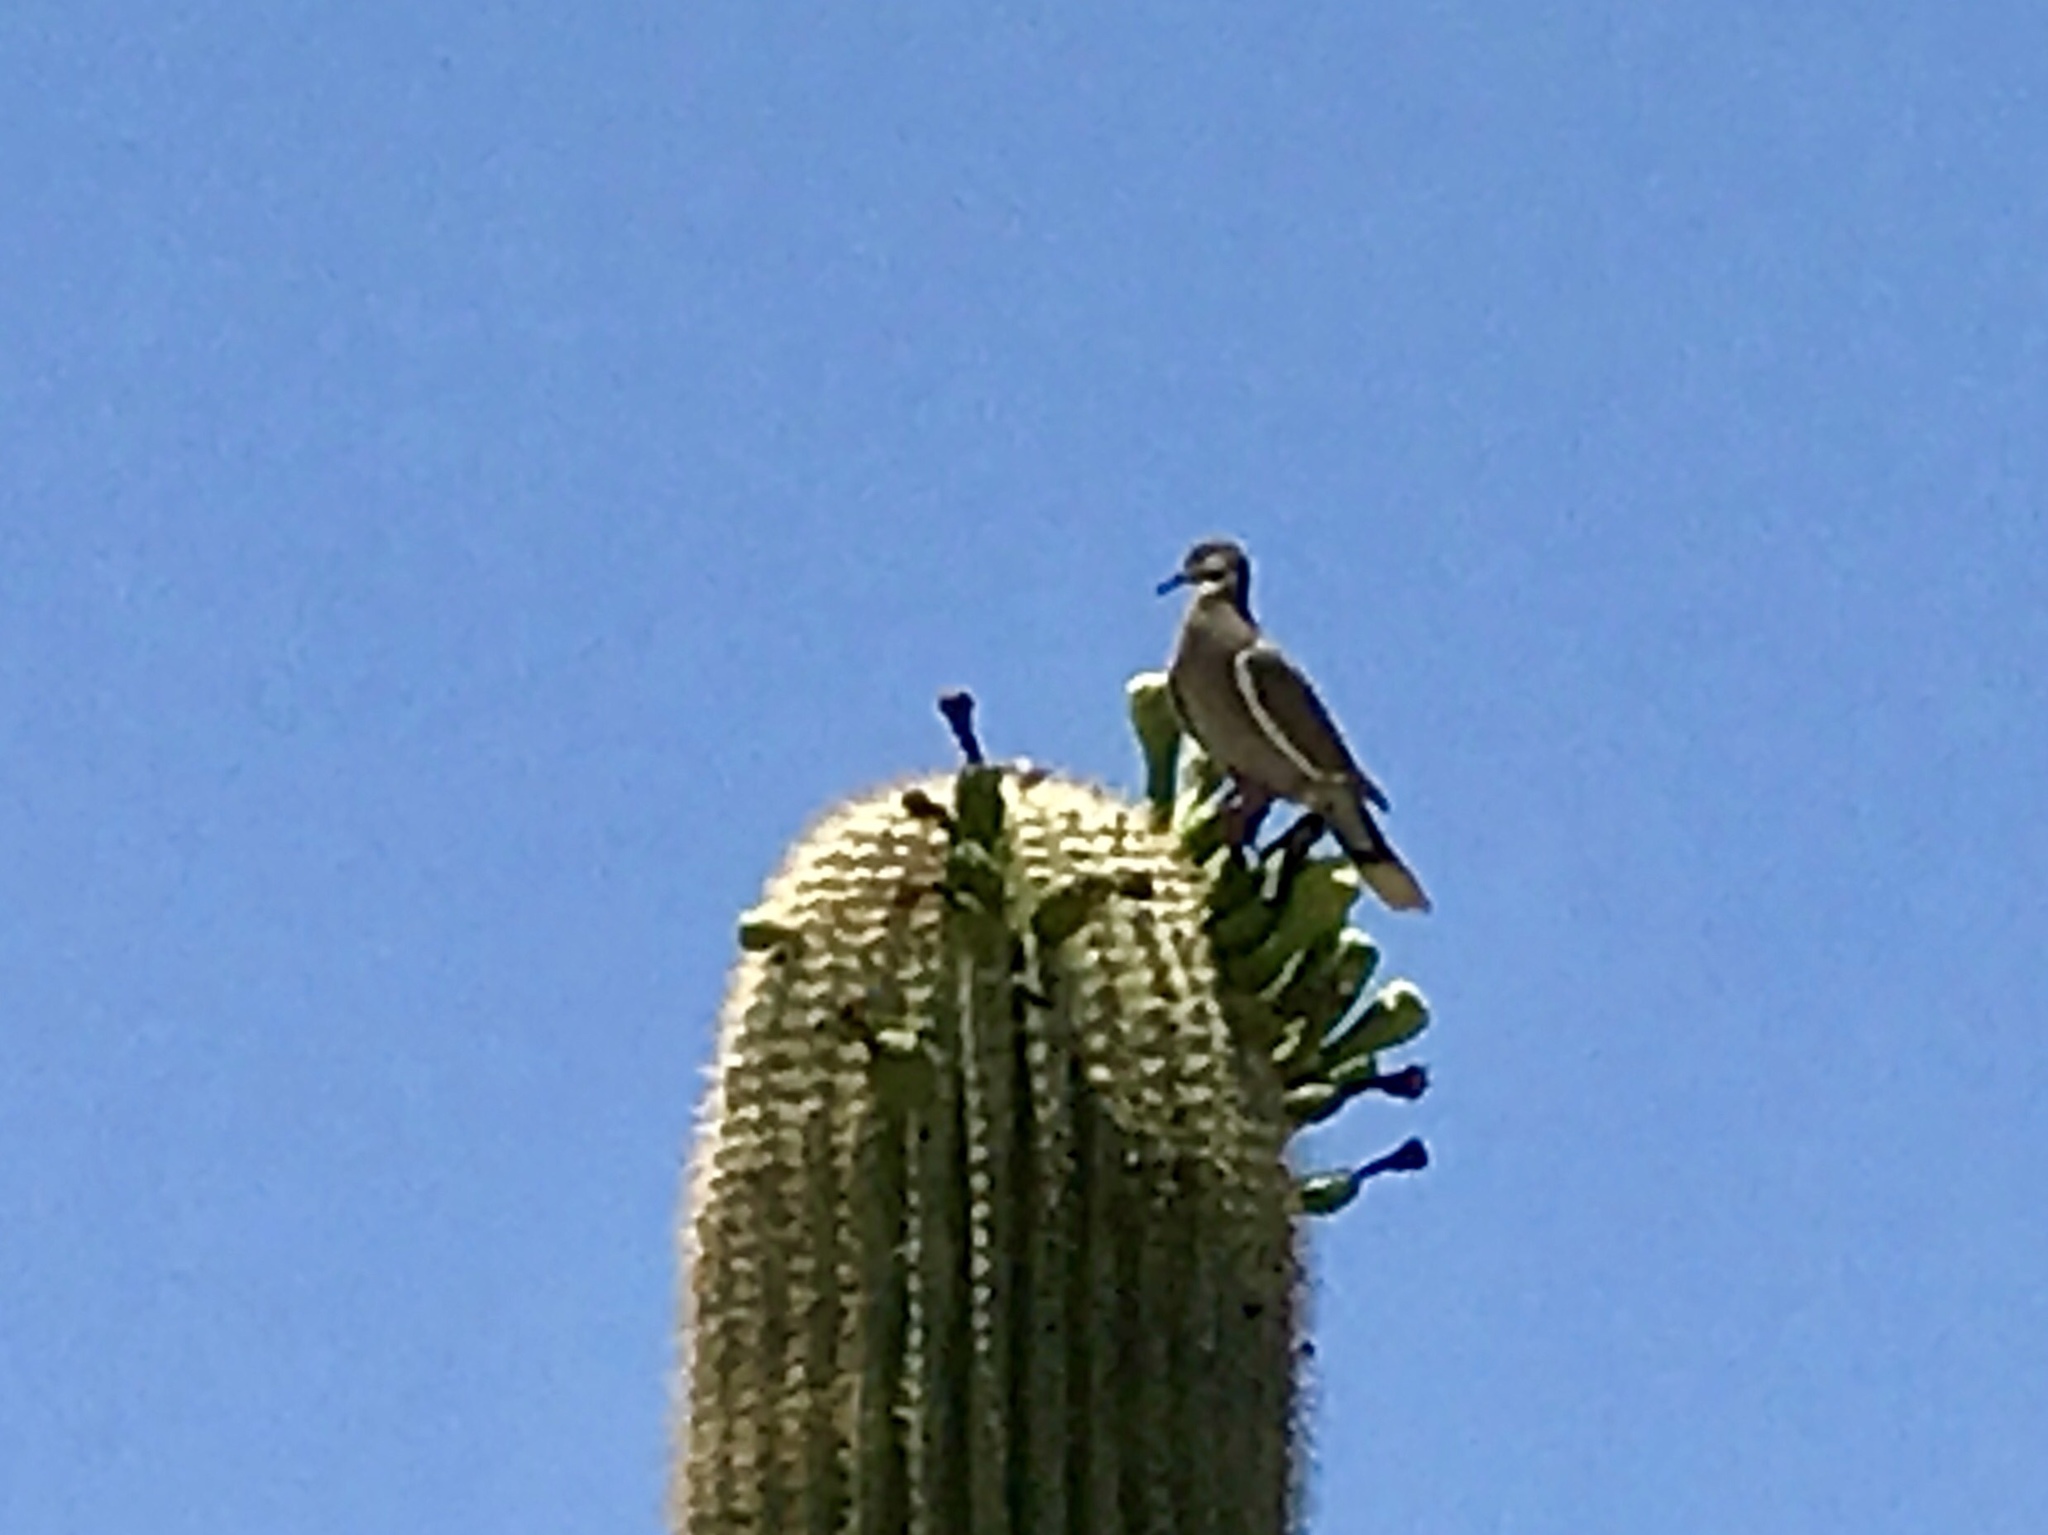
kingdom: Animalia
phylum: Chordata
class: Aves
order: Columbiformes
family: Columbidae
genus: Zenaida
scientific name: Zenaida asiatica
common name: White-winged dove
